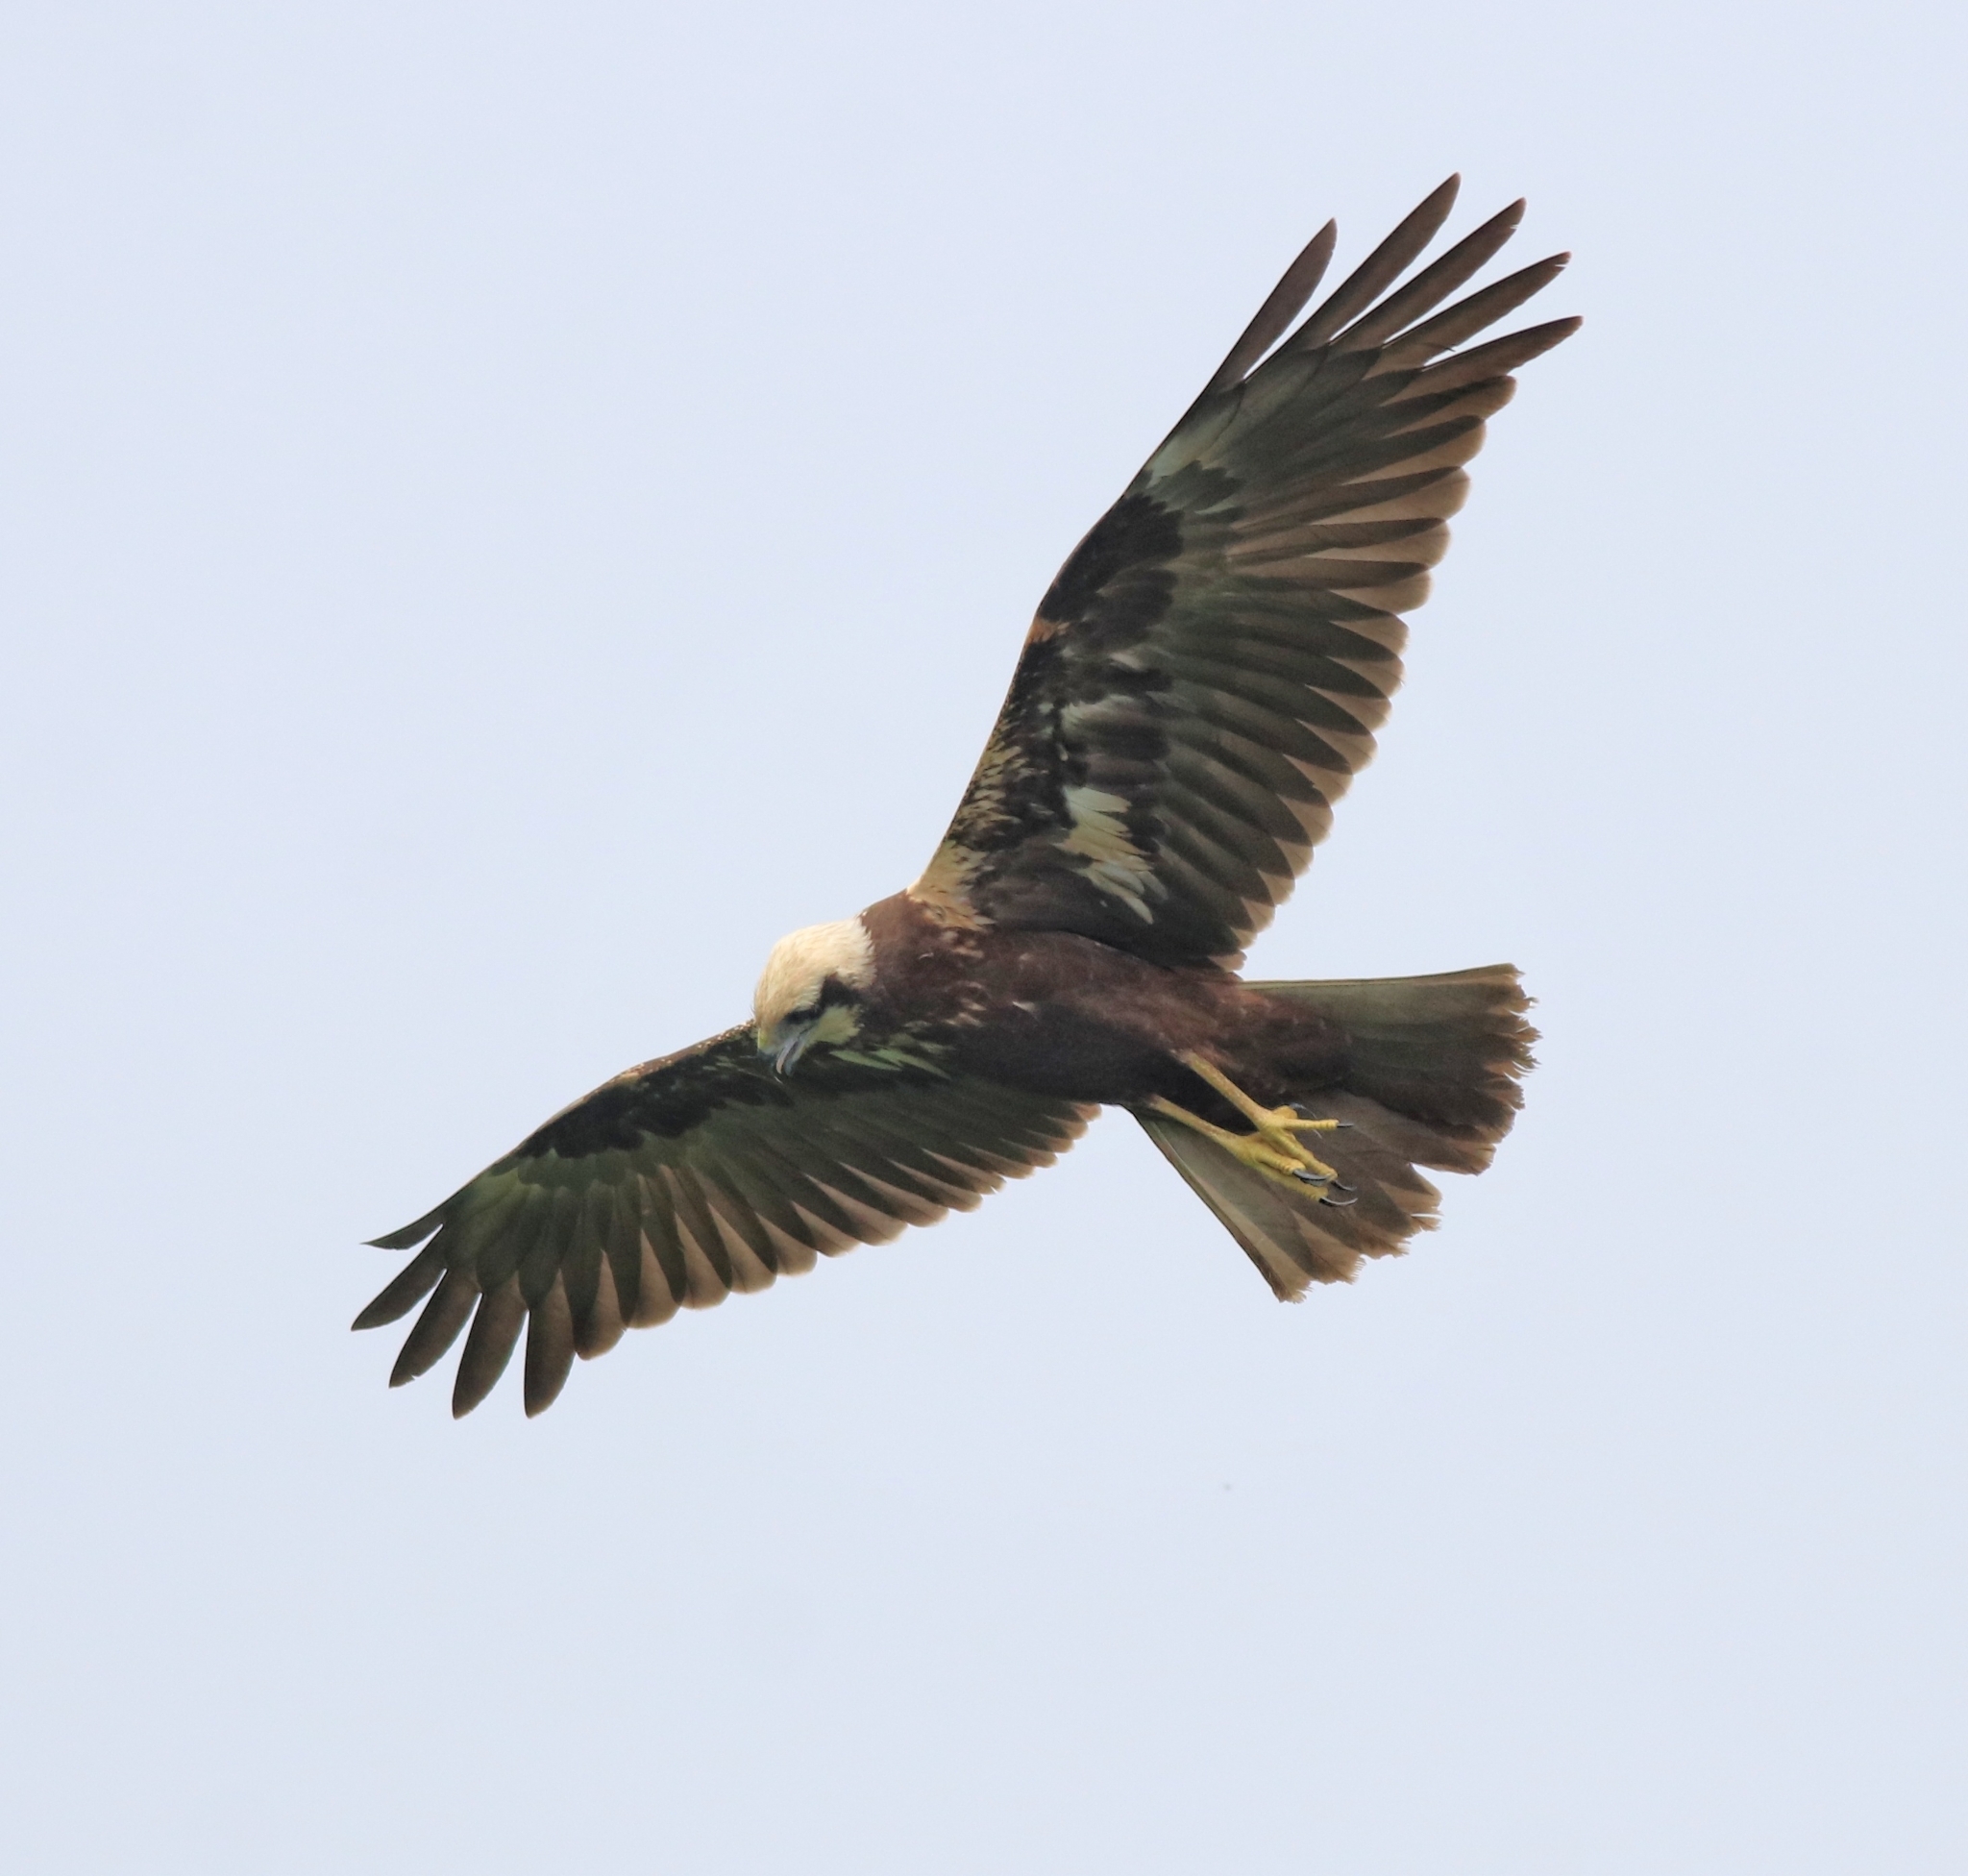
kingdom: Animalia
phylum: Chordata
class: Aves
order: Accipitriformes
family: Accipitridae
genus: Circus
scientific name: Circus aeruginosus
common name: Western marsh harrier
